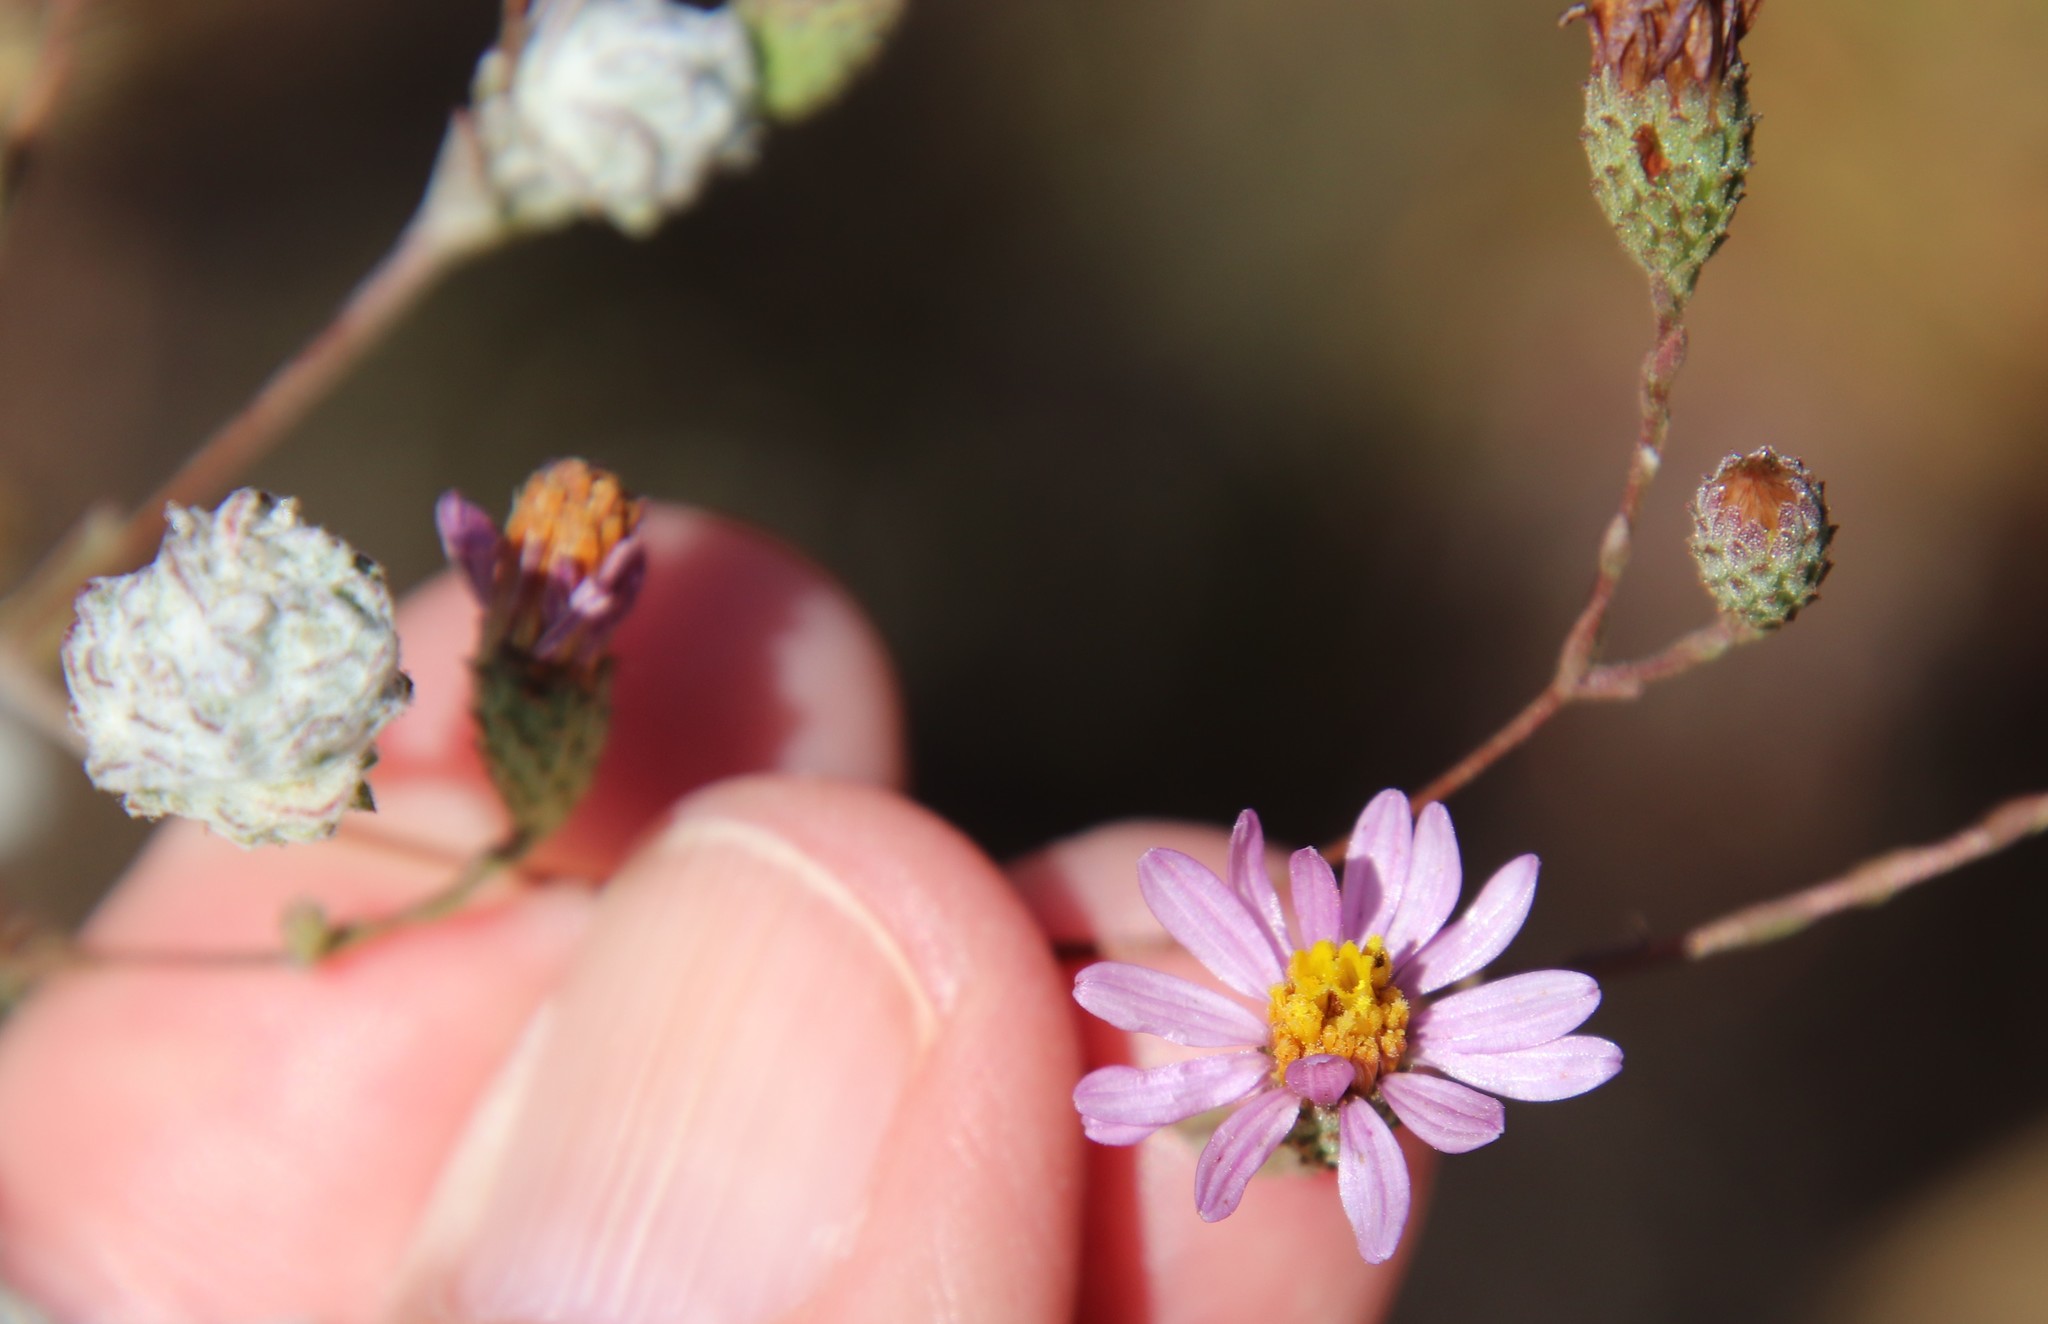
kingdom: Plantae
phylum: Tracheophyta
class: Magnoliopsida
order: Asterales
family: Asteraceae
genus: Corethrogyne
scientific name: Corethrogyne filaginifolia
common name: Sand-aster
